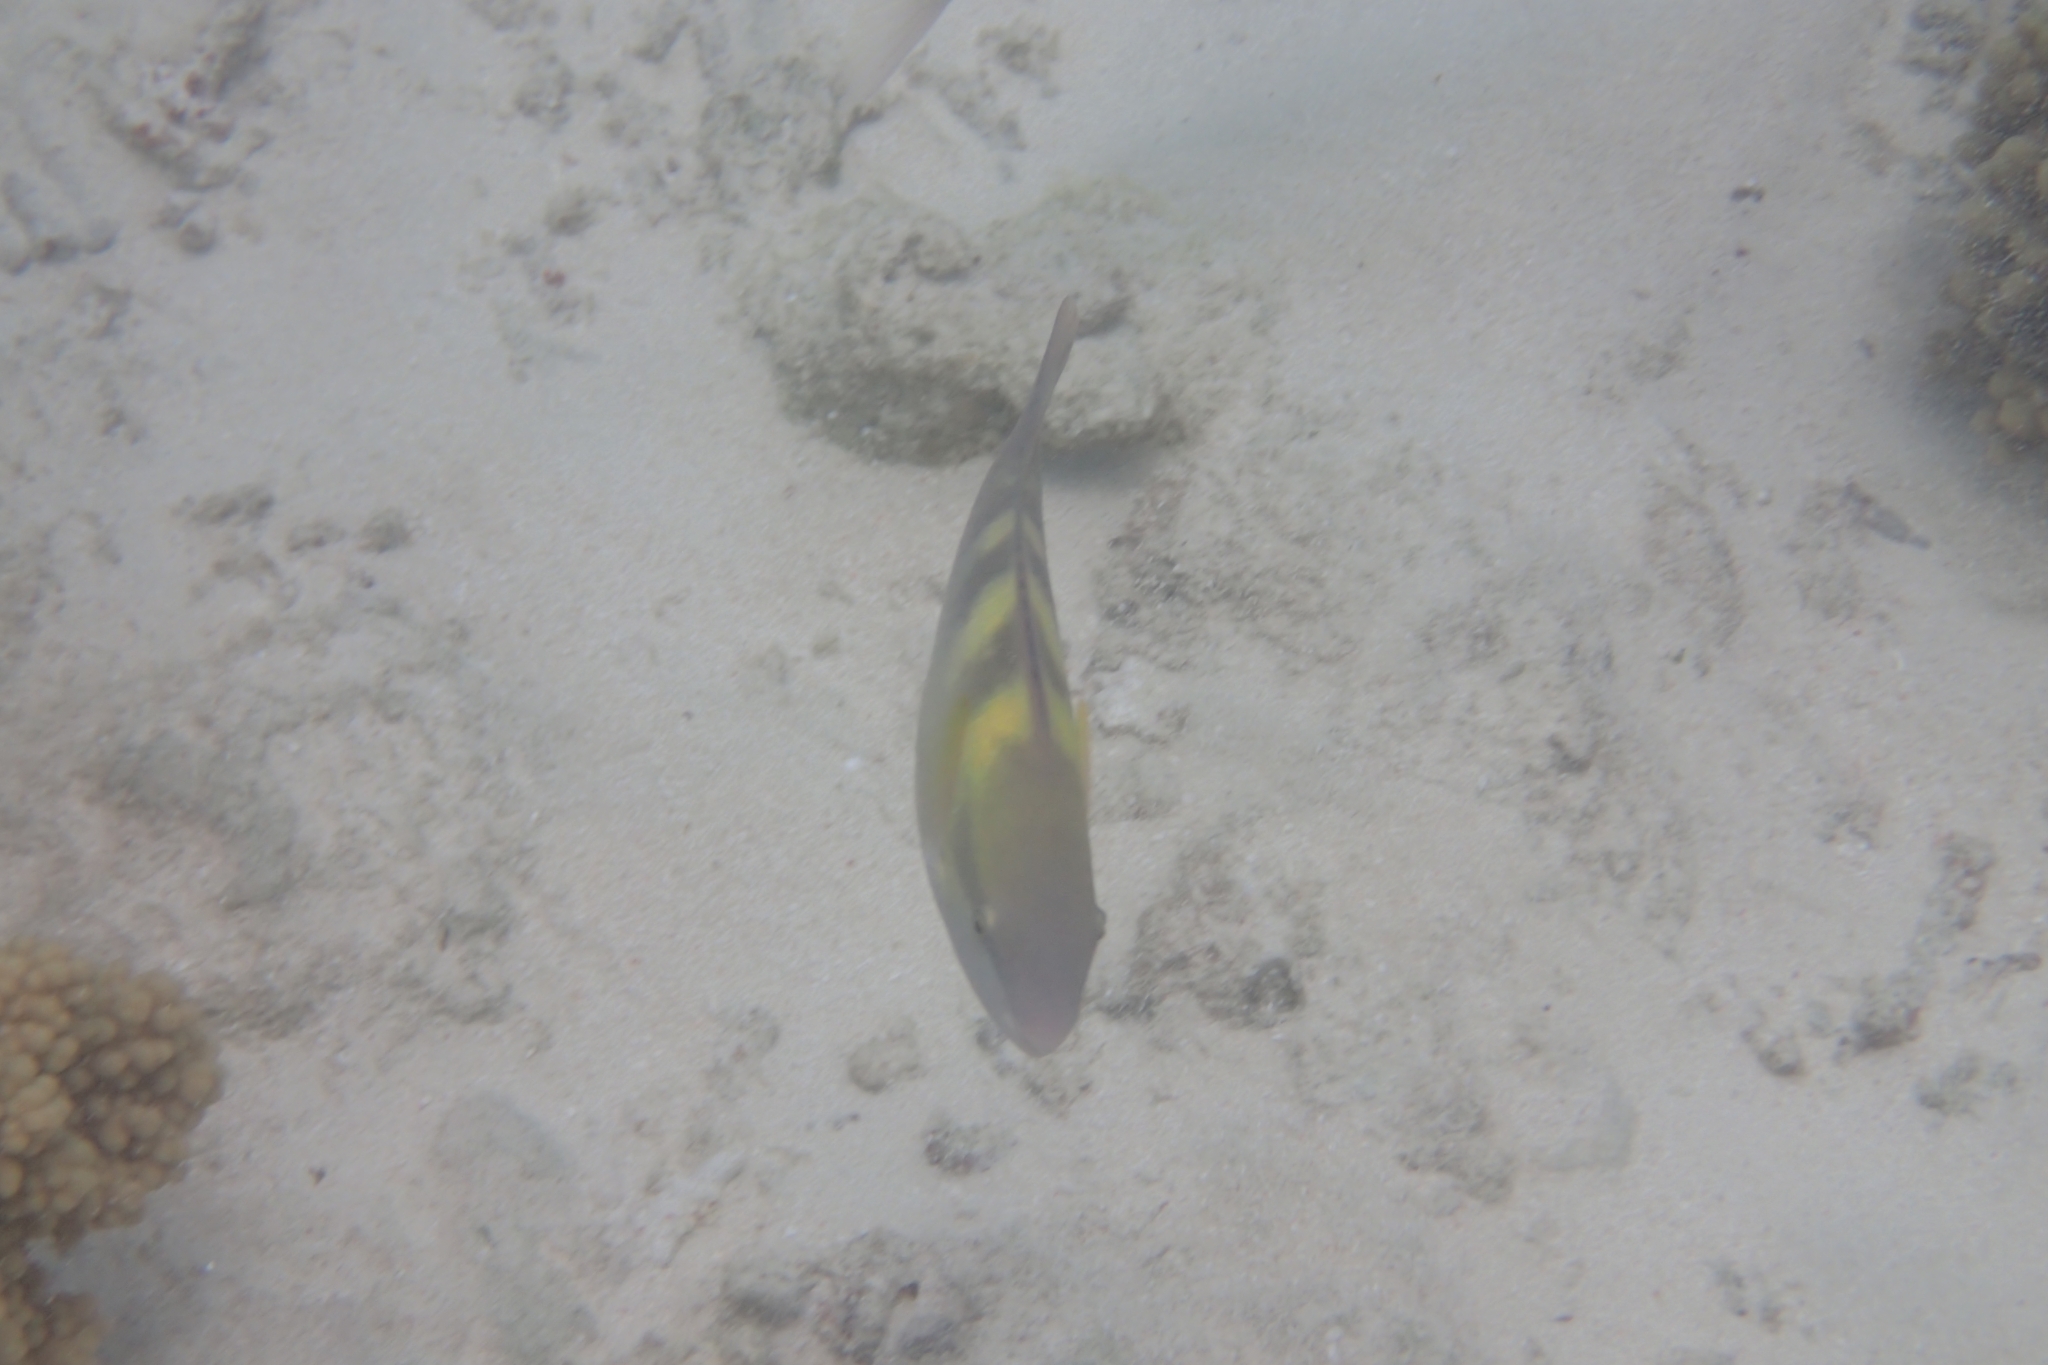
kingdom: Animalia
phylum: Chordata
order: Perciformes
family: Scaridae
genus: Scarus
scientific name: Scarus dimidiatus
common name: Yellowbarred parrotfish
